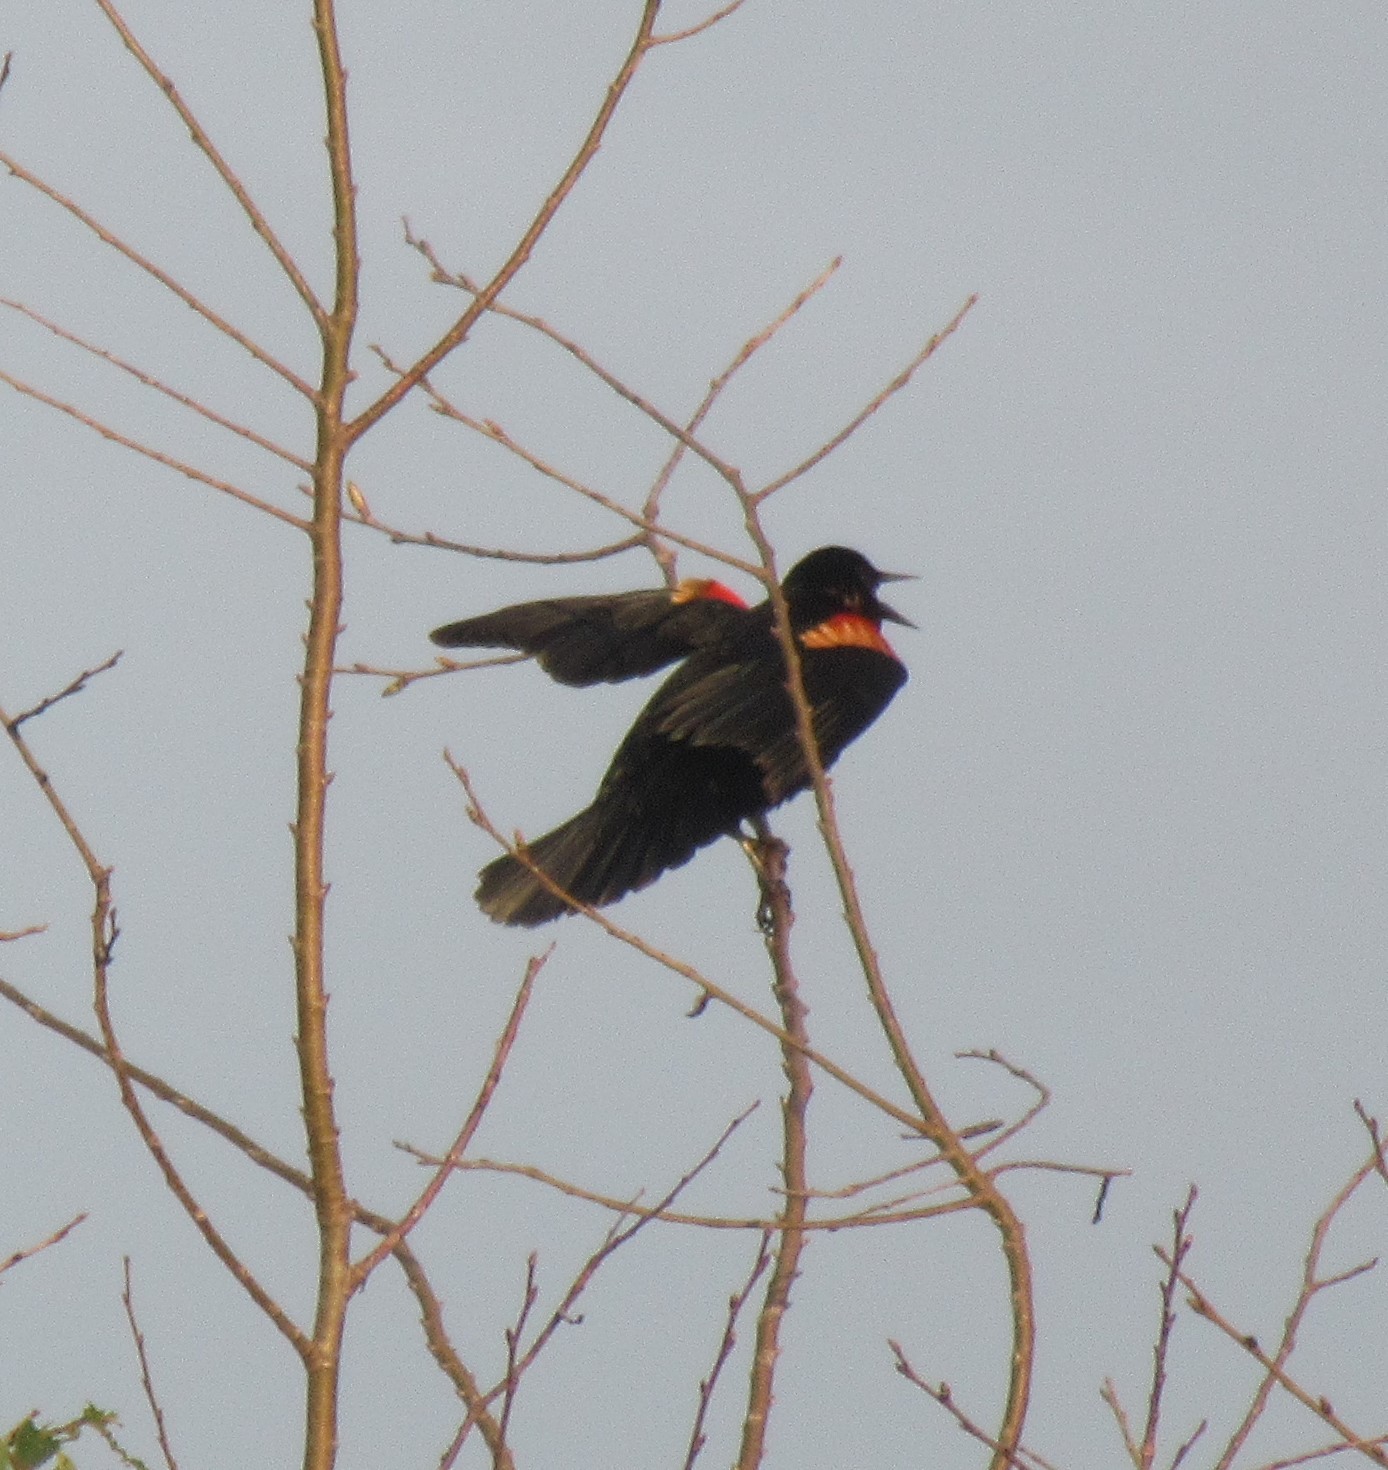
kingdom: Animalia
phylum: Chordata
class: Aves
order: Passeriformes
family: Icteridae
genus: Agelaius
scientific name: Agelaius phoeniceus
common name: Red-winged blackbird
